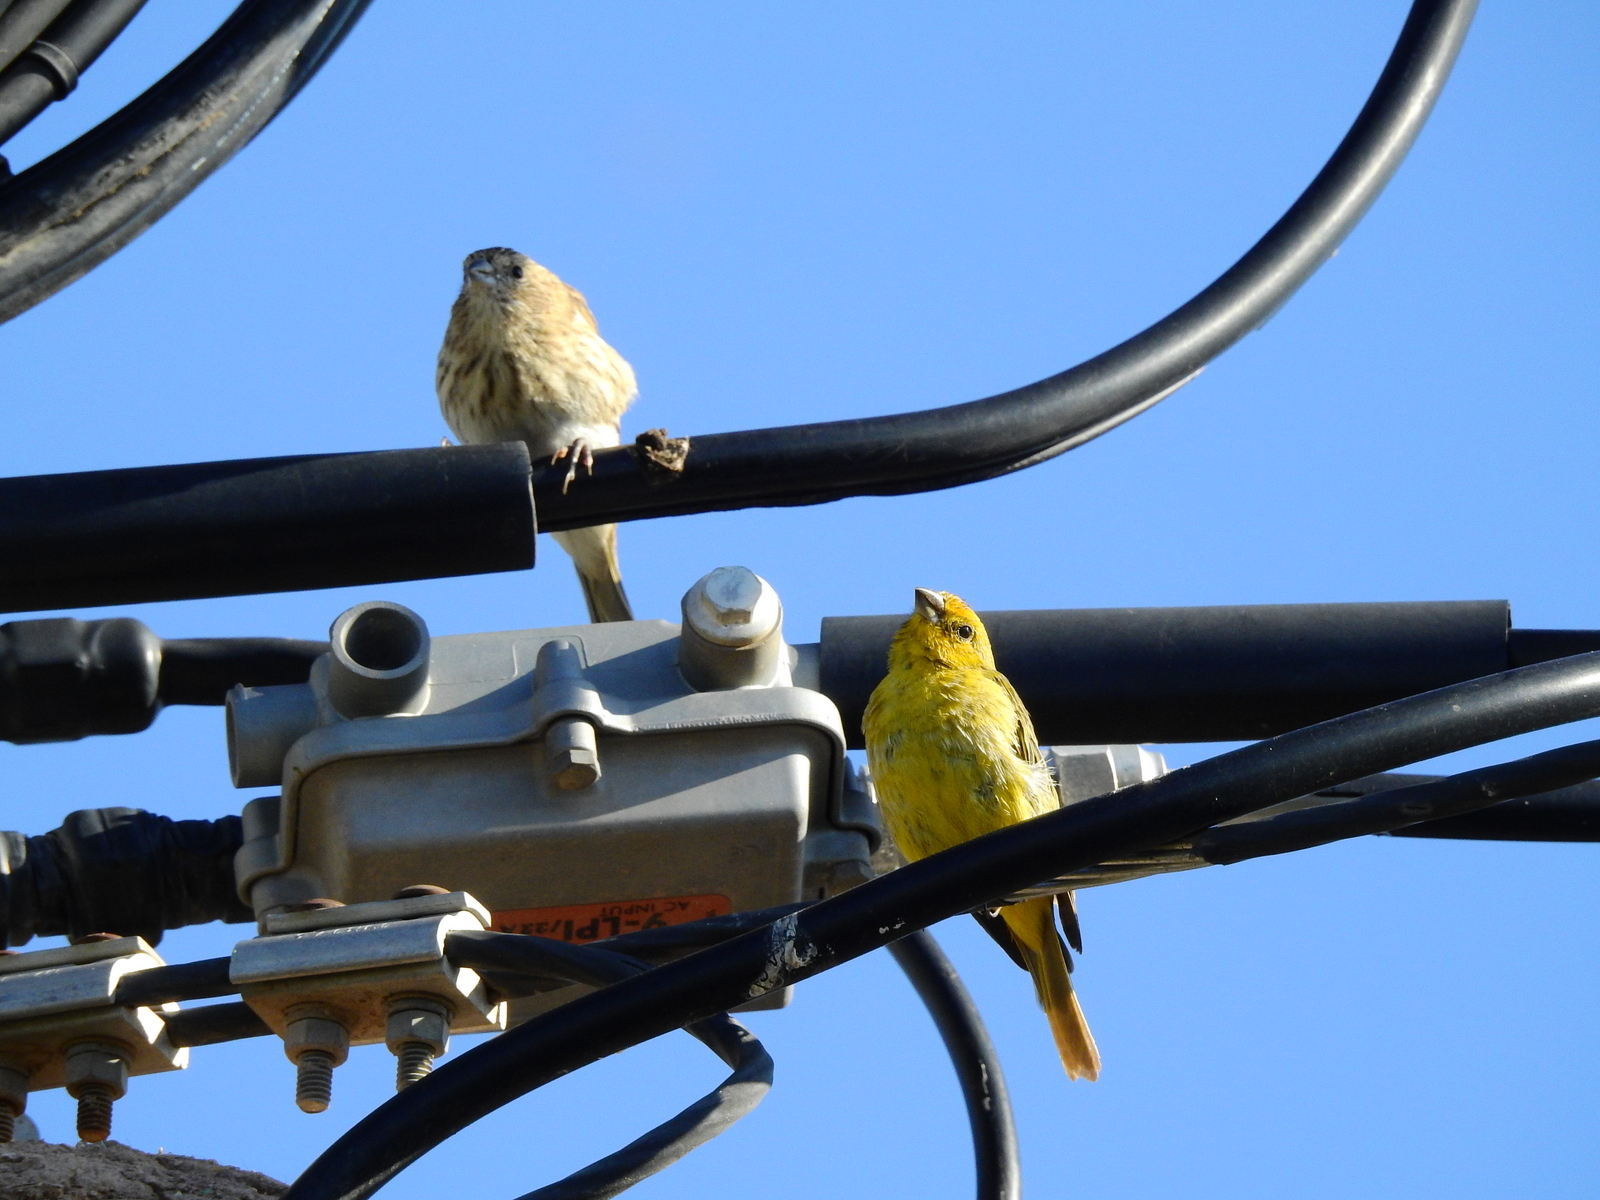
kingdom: Animalia
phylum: Chordata
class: Aves
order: Passeriformes
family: Thraupidae
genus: Sicalis
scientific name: Sicalis flaveola
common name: Saffron finch
